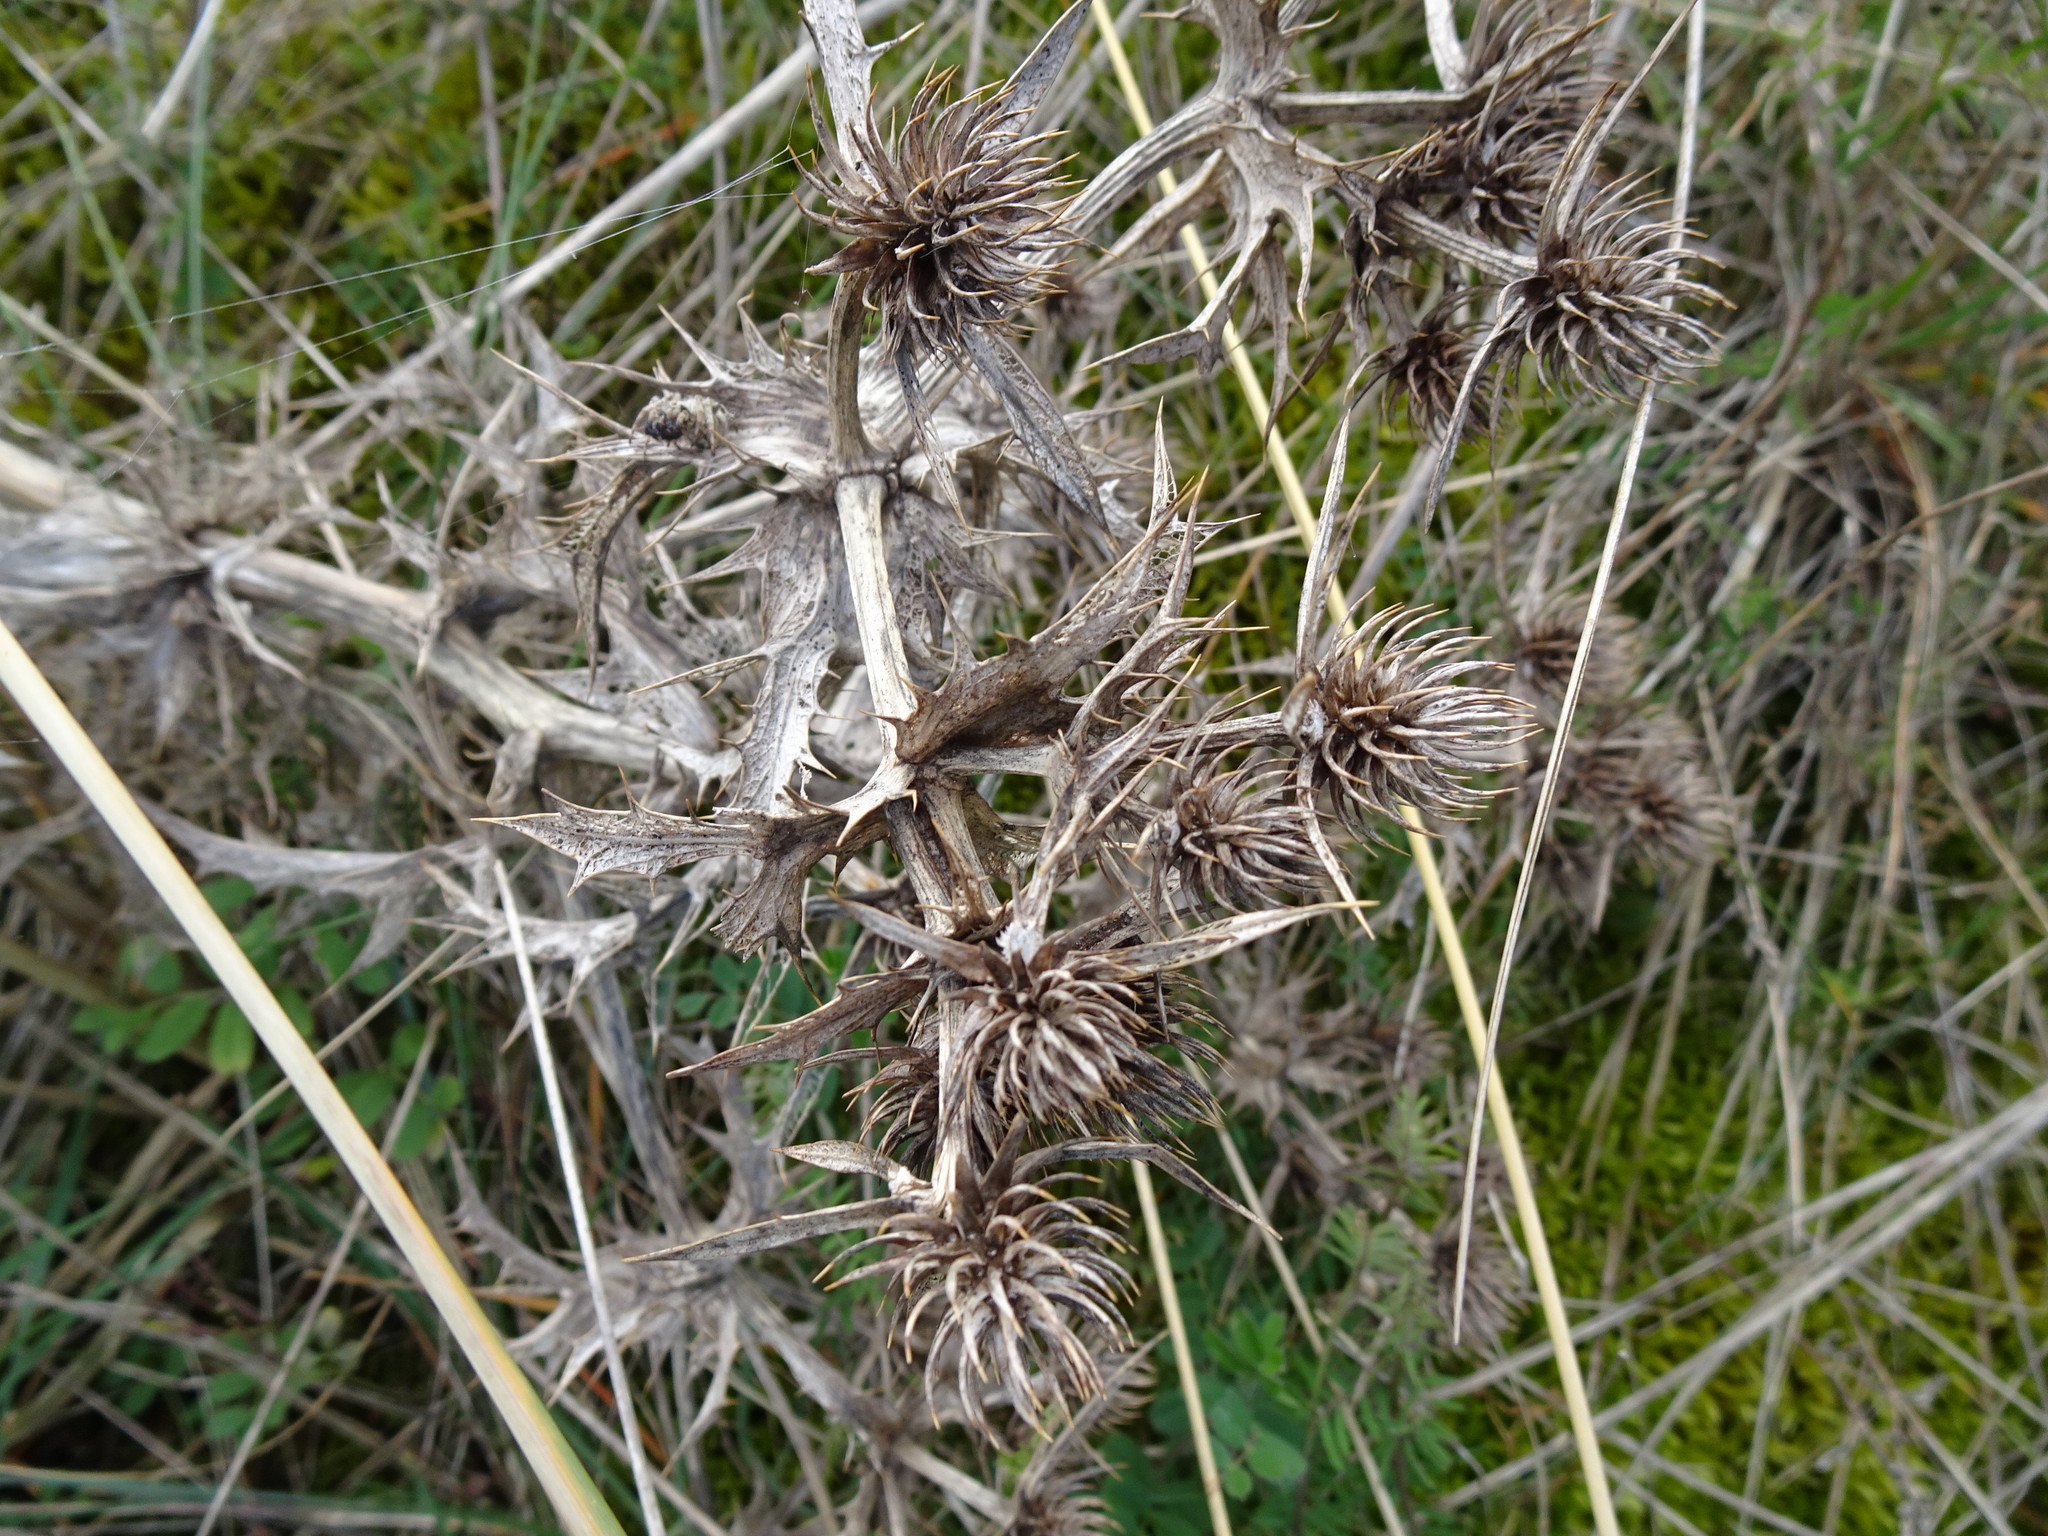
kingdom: Plantae
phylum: Tracheophyta
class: Magnoliopsida
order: Apiales
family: Apiaceae
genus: Eryngium
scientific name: Eryngium campestre
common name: Field eryngo
